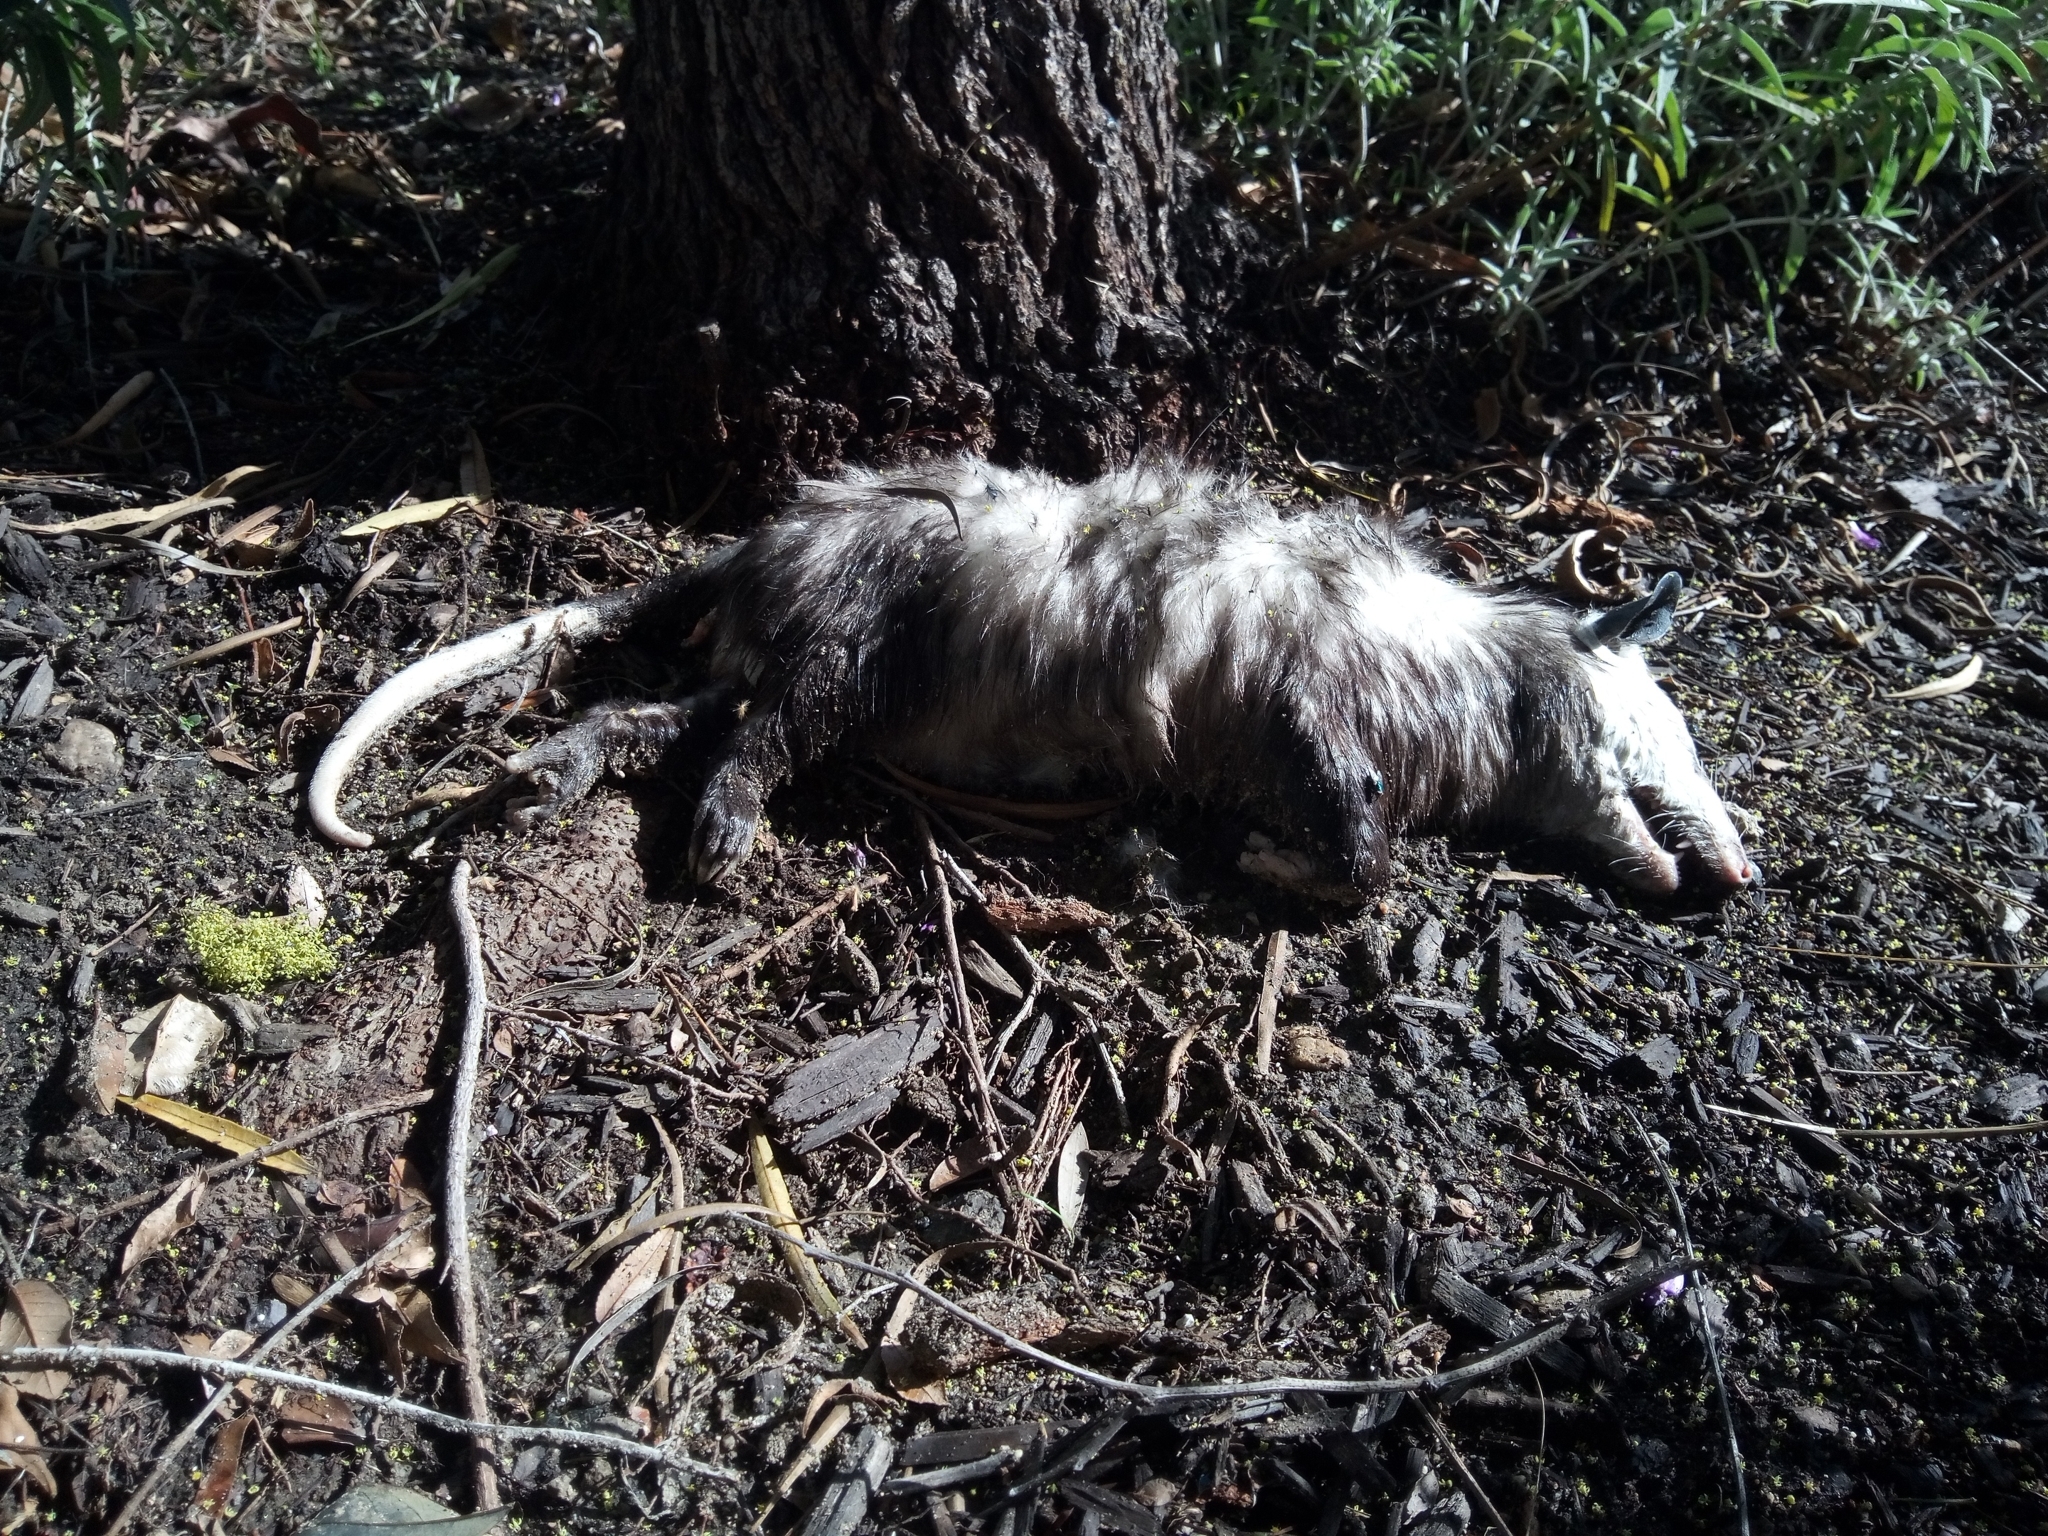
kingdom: Animalia
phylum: Chordata
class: Mammalia
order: Didelphimorphia
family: Didelphidae
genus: Didelphis
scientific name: Didelphis virginiana
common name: Virginia opossum
